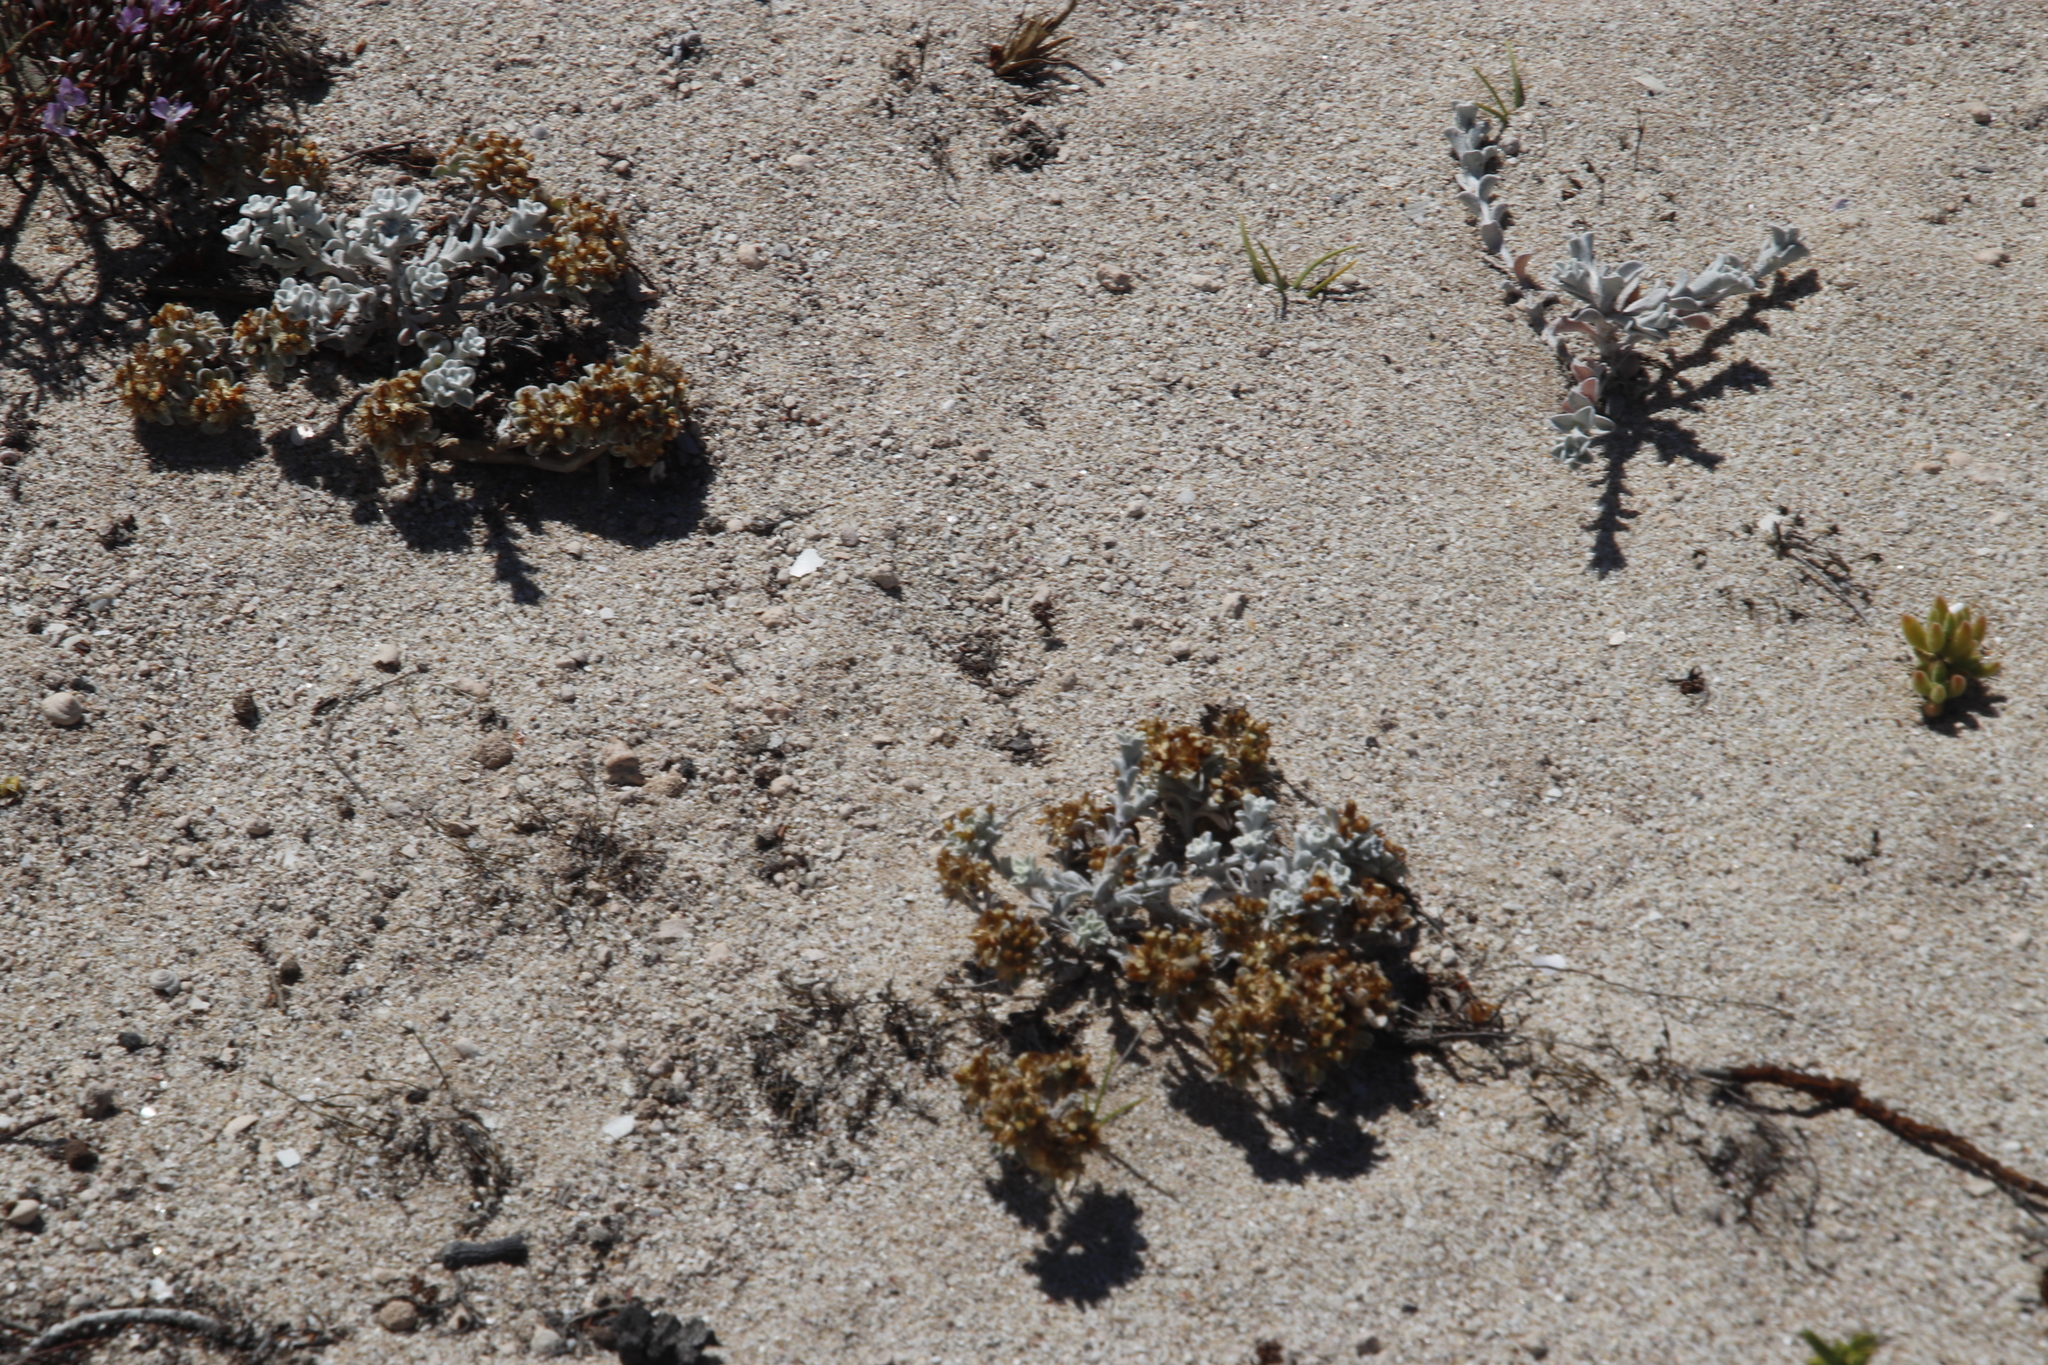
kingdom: Plantae
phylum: Tracheophyta
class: Magnoliopsida
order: Asterales
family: Asteraceae
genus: Helichrysum
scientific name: Helichrysum litorale
